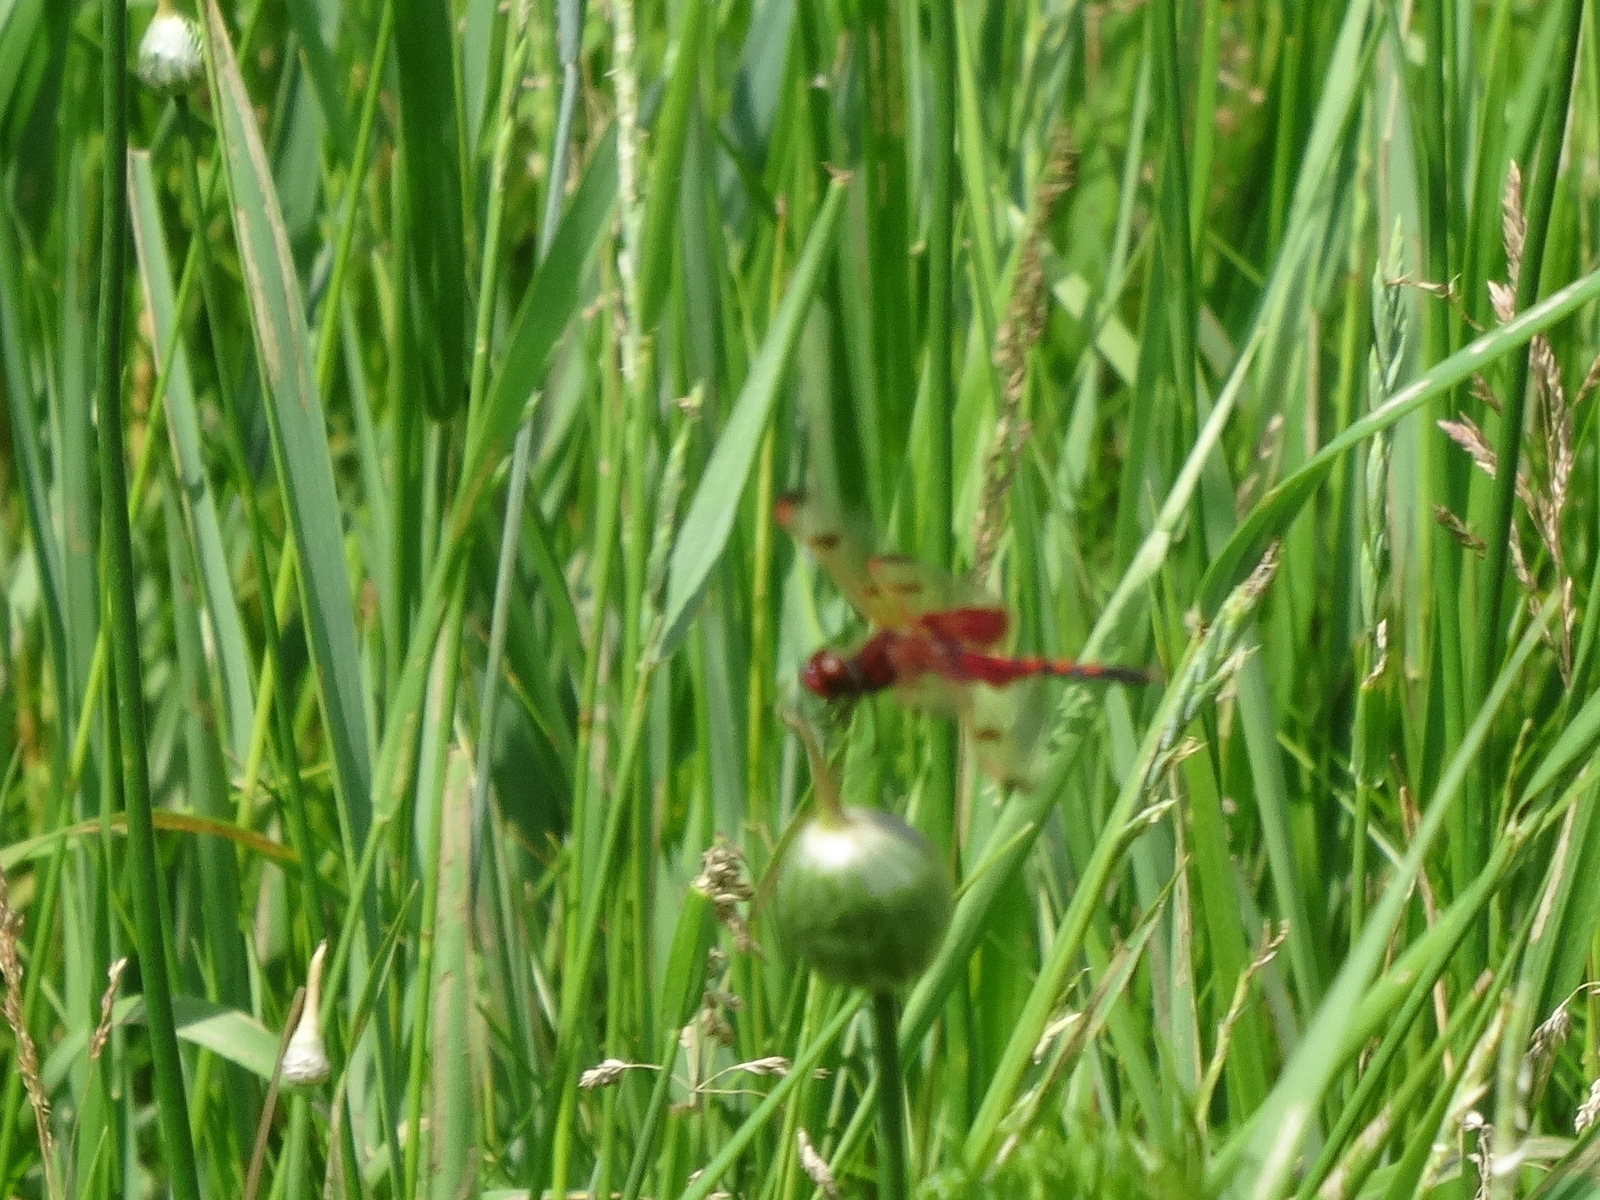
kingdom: Animalia
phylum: Arthropoda
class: Insecta
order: Odonata
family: Libellulidae
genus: Celithemis
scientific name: Celithemis elisa
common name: Calico pennant
